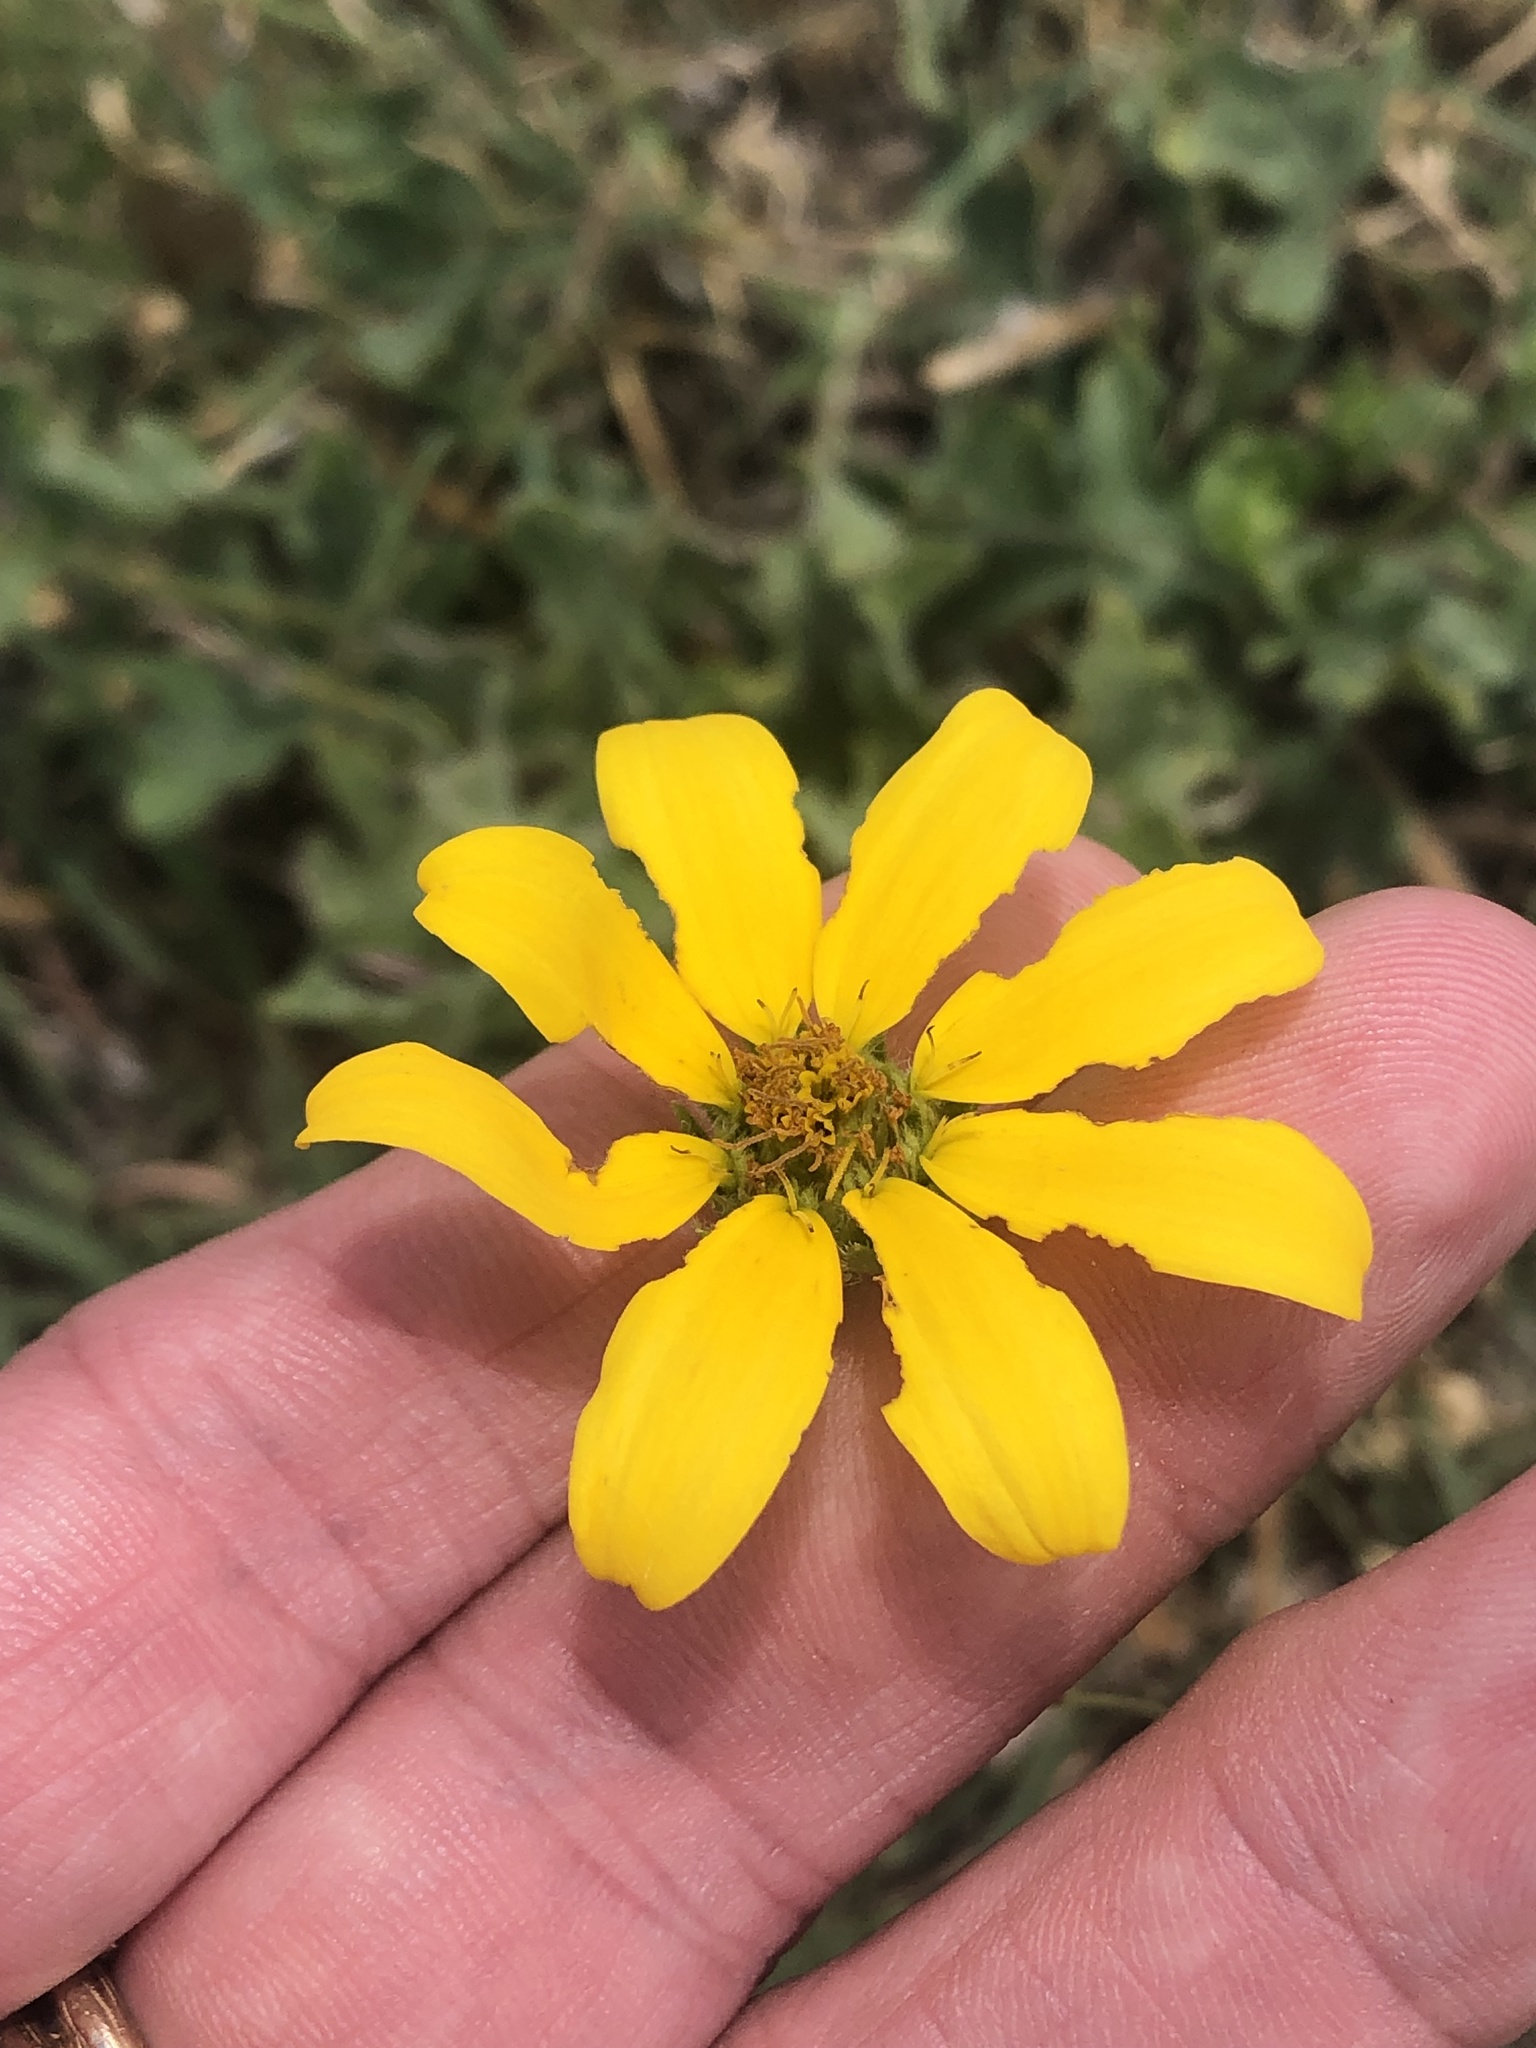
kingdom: Plantae
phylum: Tracheophyta
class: Magnoliopsida
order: Asterales
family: Asteraceae
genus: Engelmannia
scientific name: Engelmannia peristenia
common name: Engelmann's daisy
